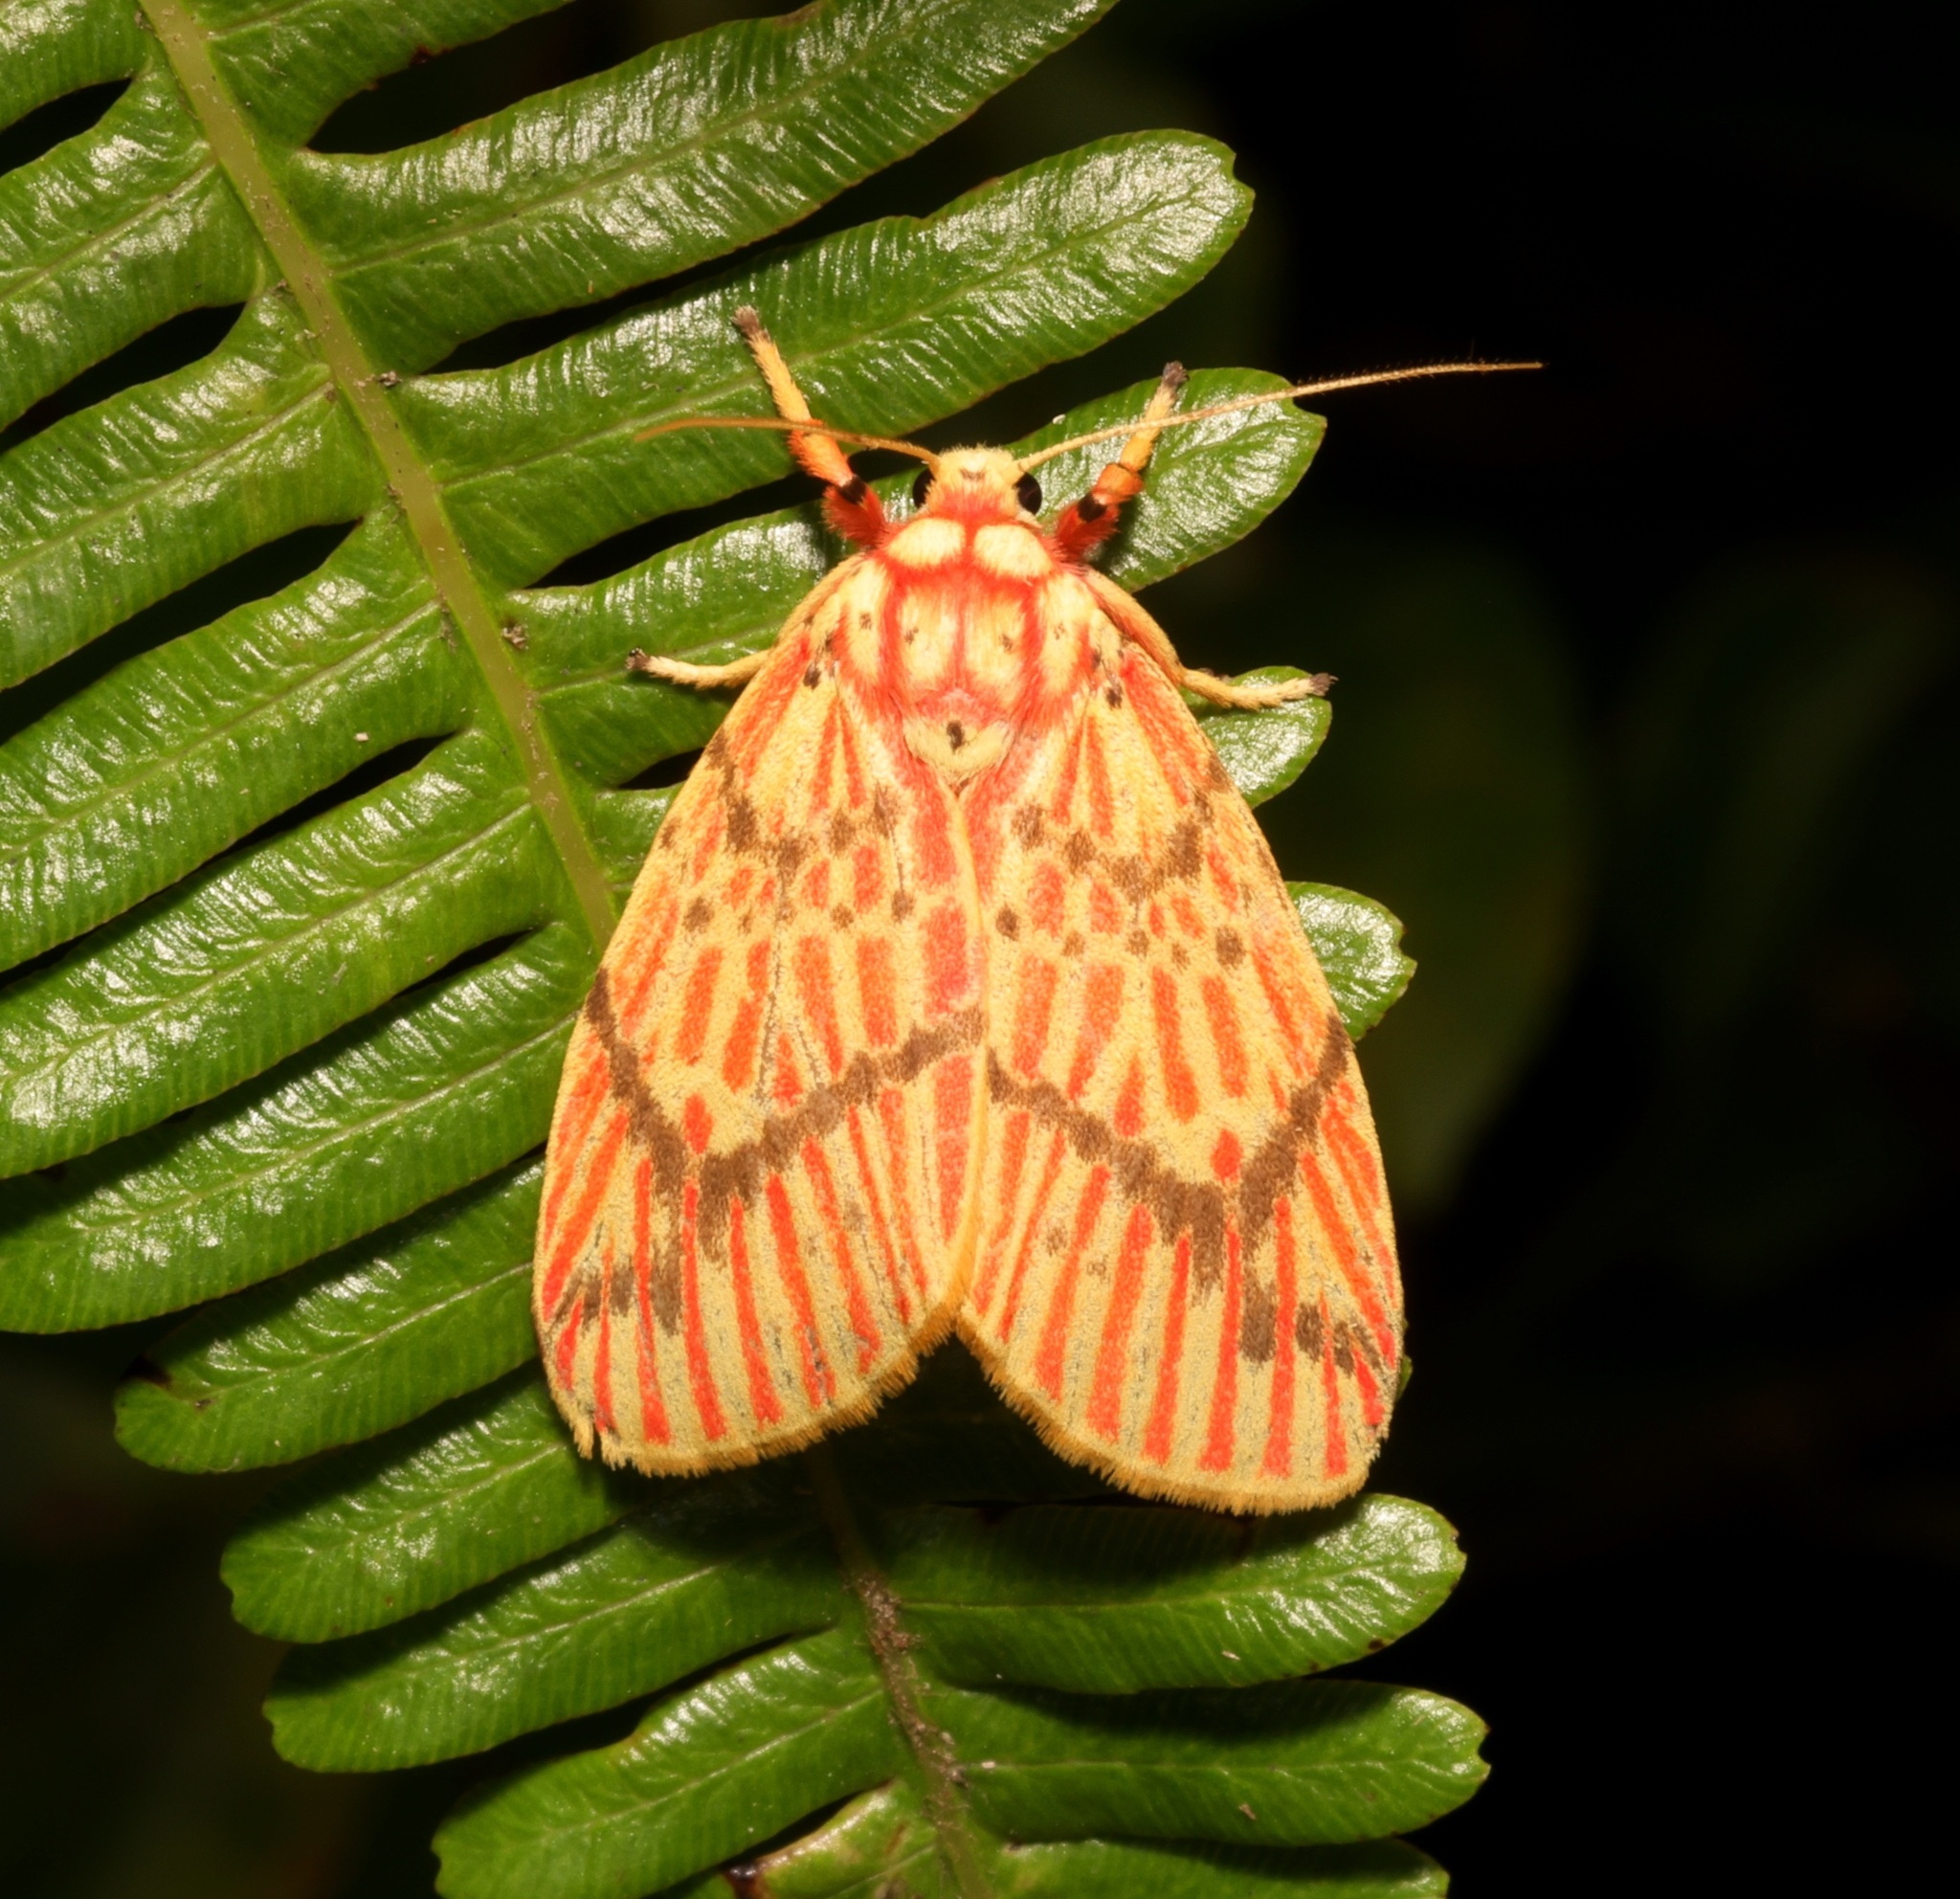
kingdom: Animalia
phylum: Arthropoda
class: Insecta
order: Lepidoptera
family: Erebidae
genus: Barsine
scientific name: Barsine striata
